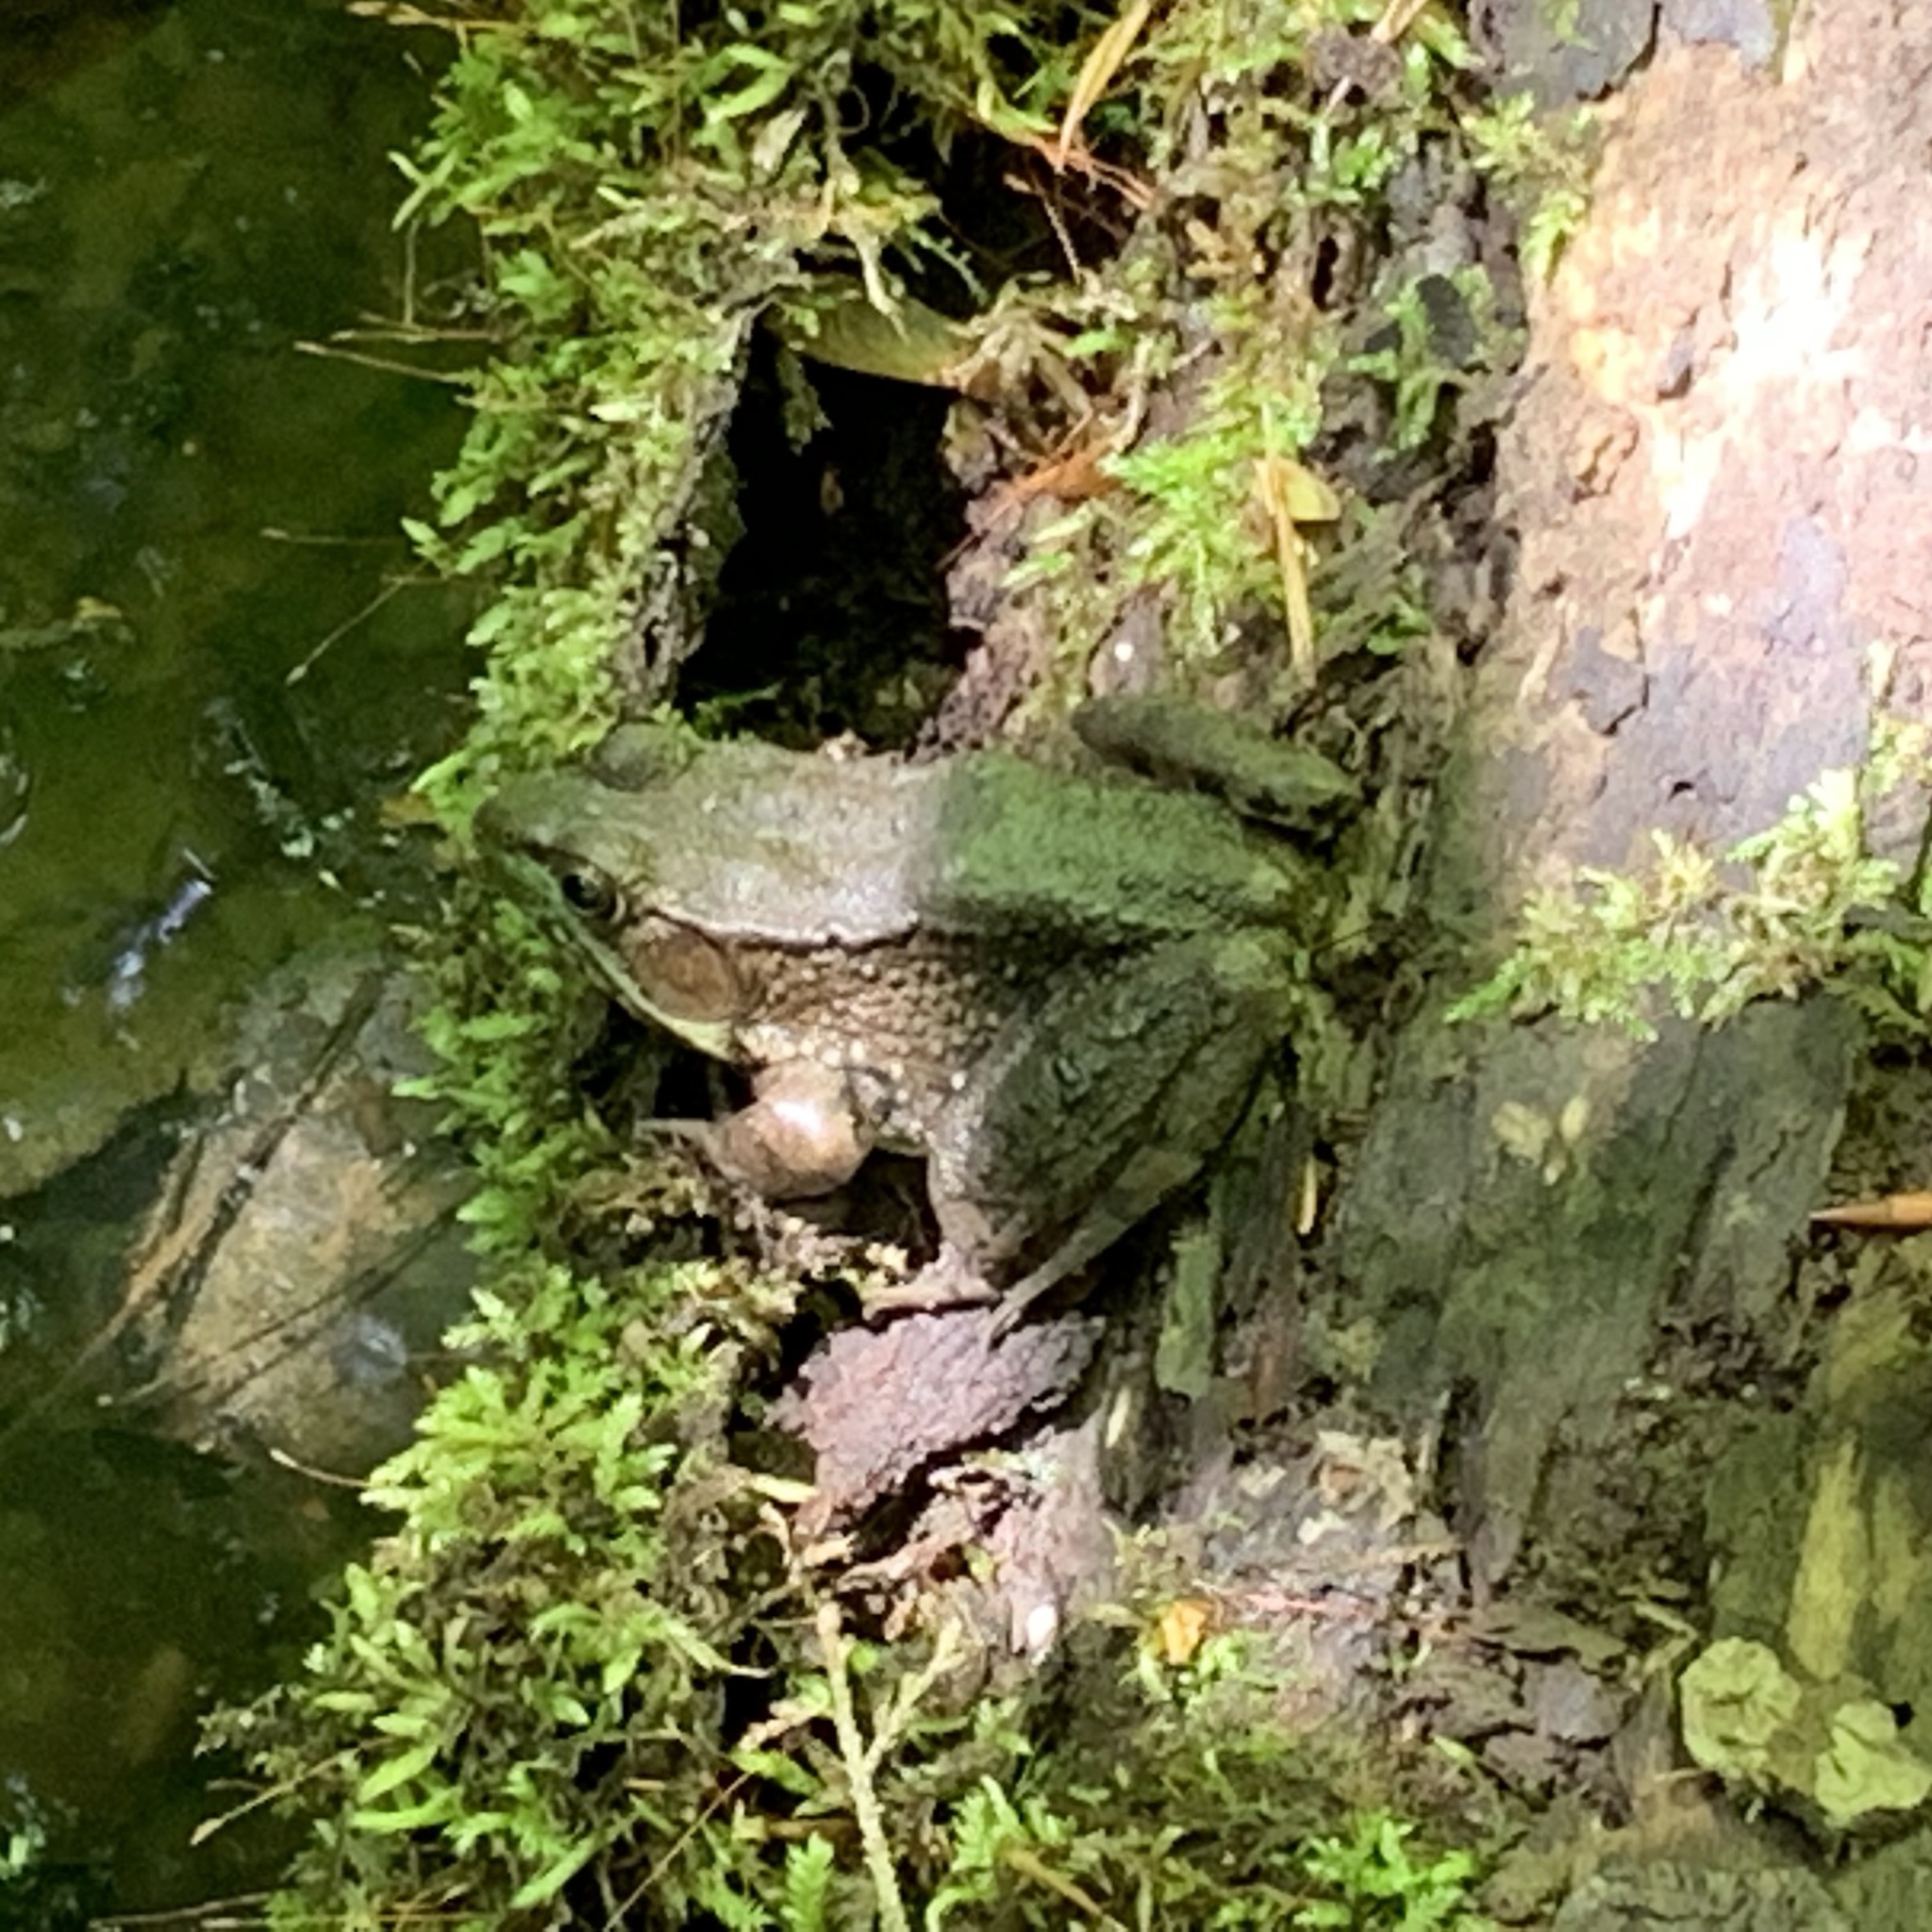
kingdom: Animalia
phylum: Chordata
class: Amphibia
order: Anura
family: Ranidae
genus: Lithobates
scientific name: Lithobates clamitans
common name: Green frog
